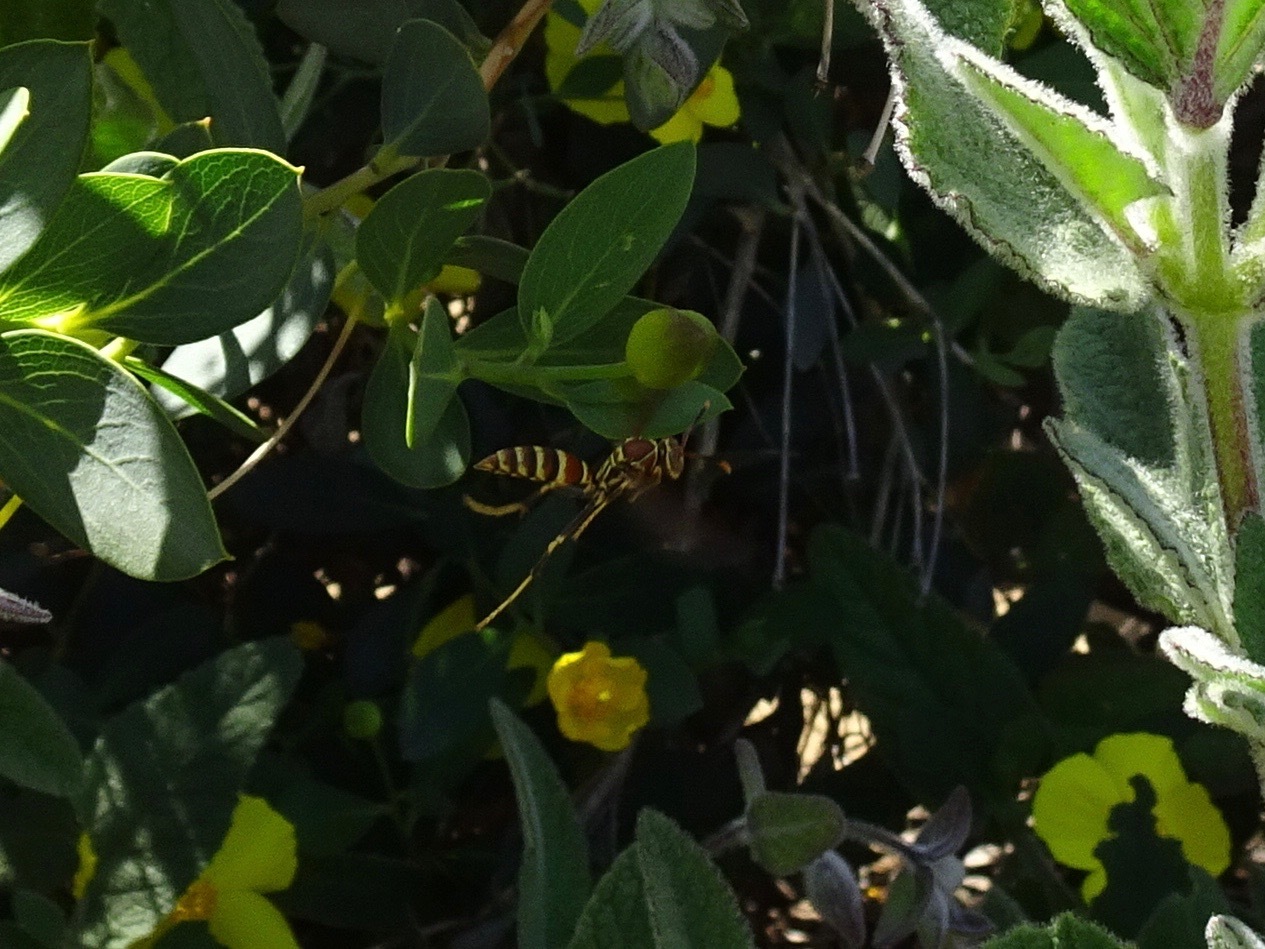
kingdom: Animalia
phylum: Arthropoda
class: Insecta
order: Hymenoptera
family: Eumenidae
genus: Polistes
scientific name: Polistes exclamans
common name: Paper wasp
